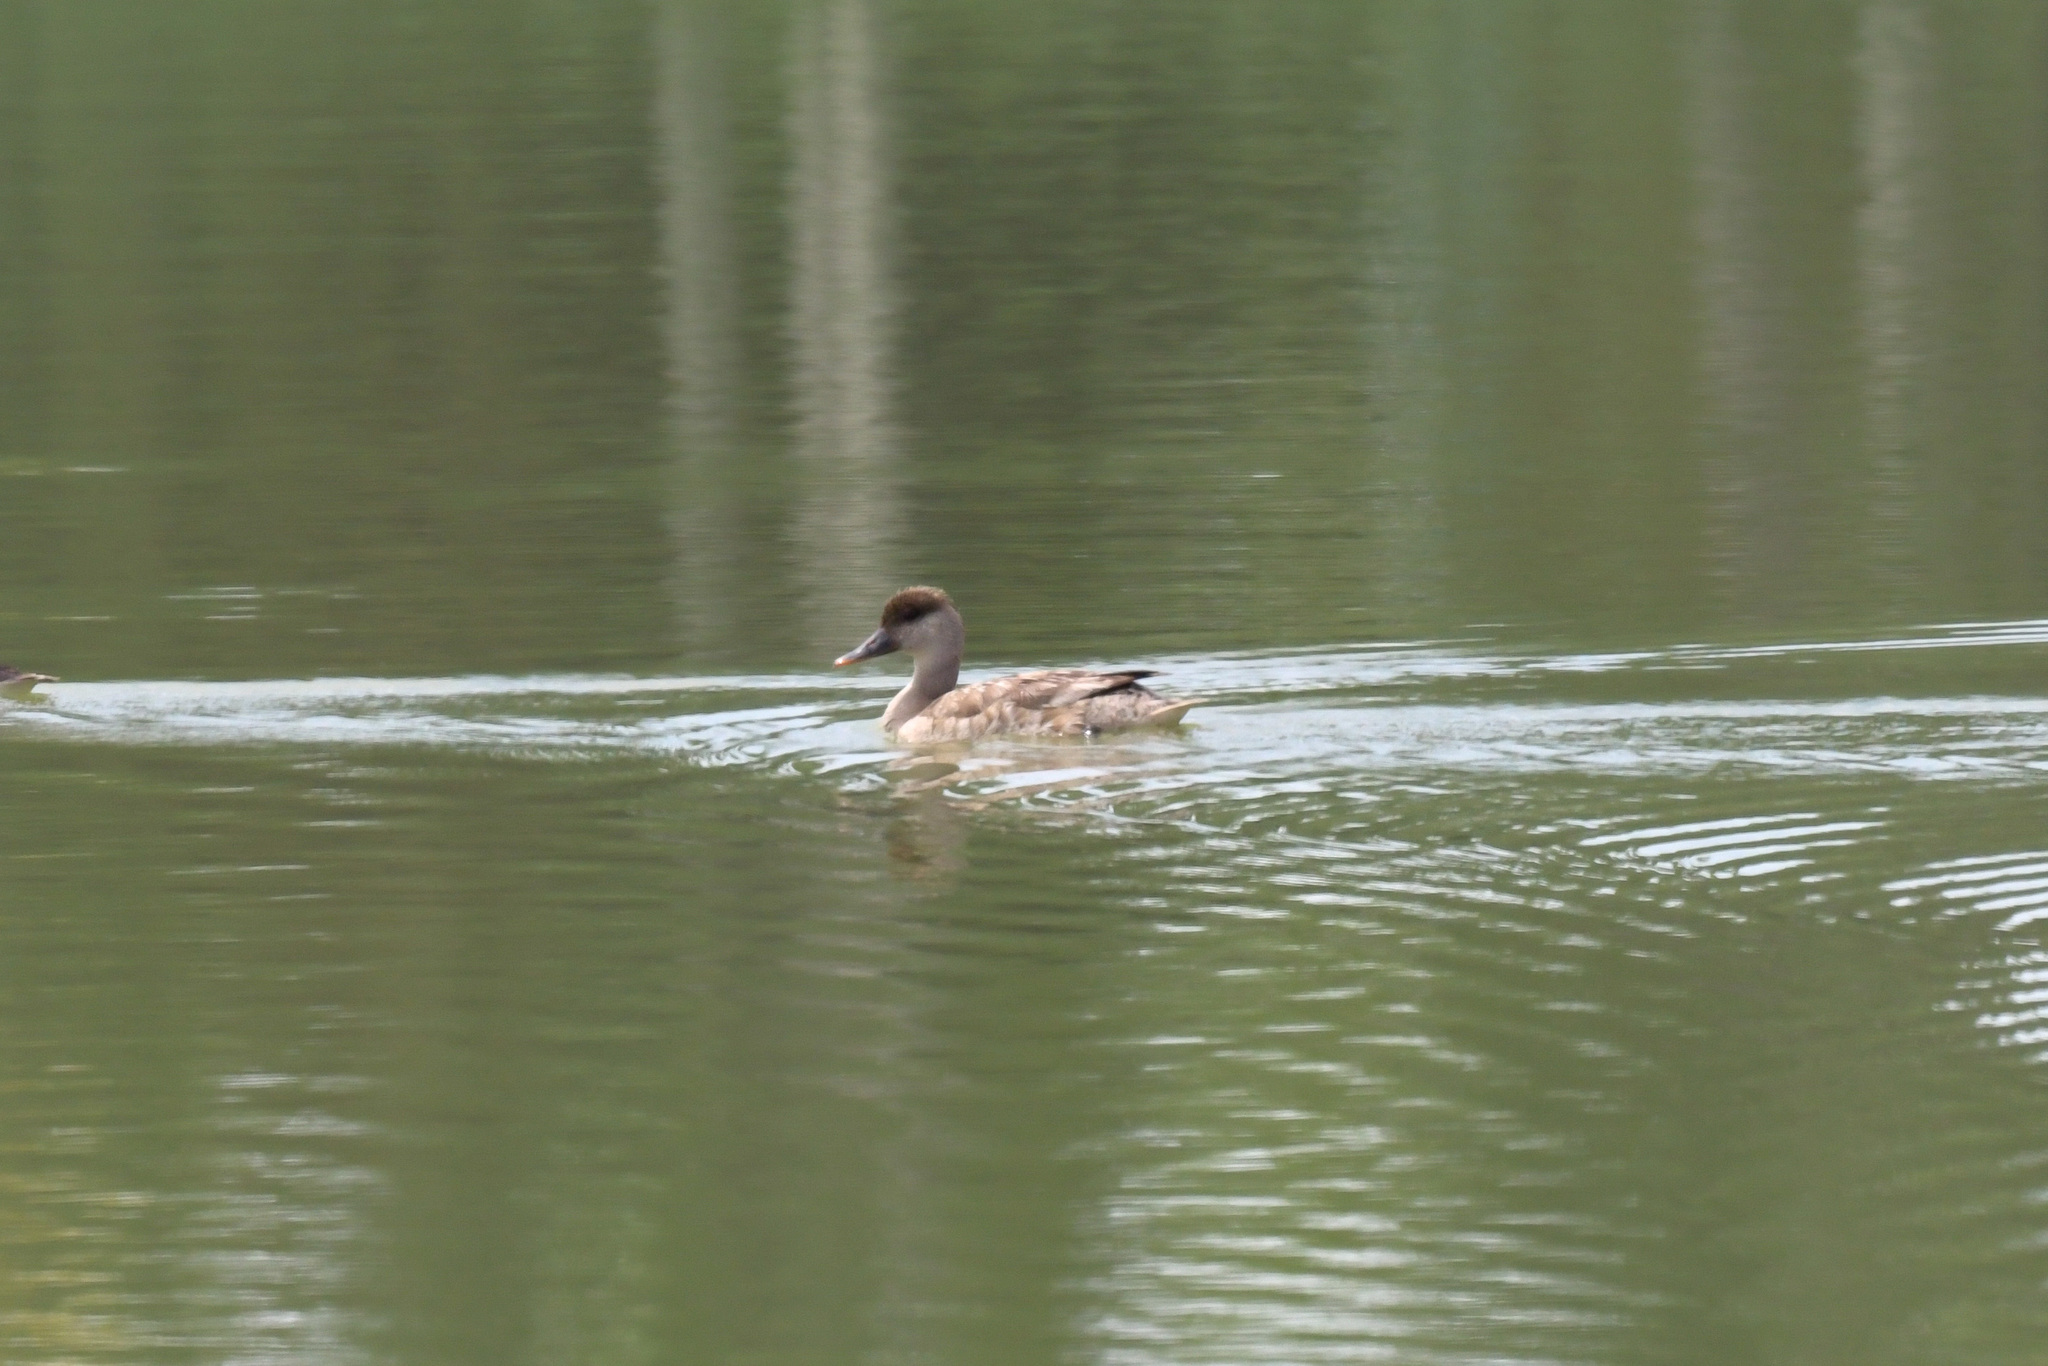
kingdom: Animalia
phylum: Chordata
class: Aves
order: Anseriformes
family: Anatidae
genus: Netta
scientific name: Netta rufina
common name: Red-crested pochard
